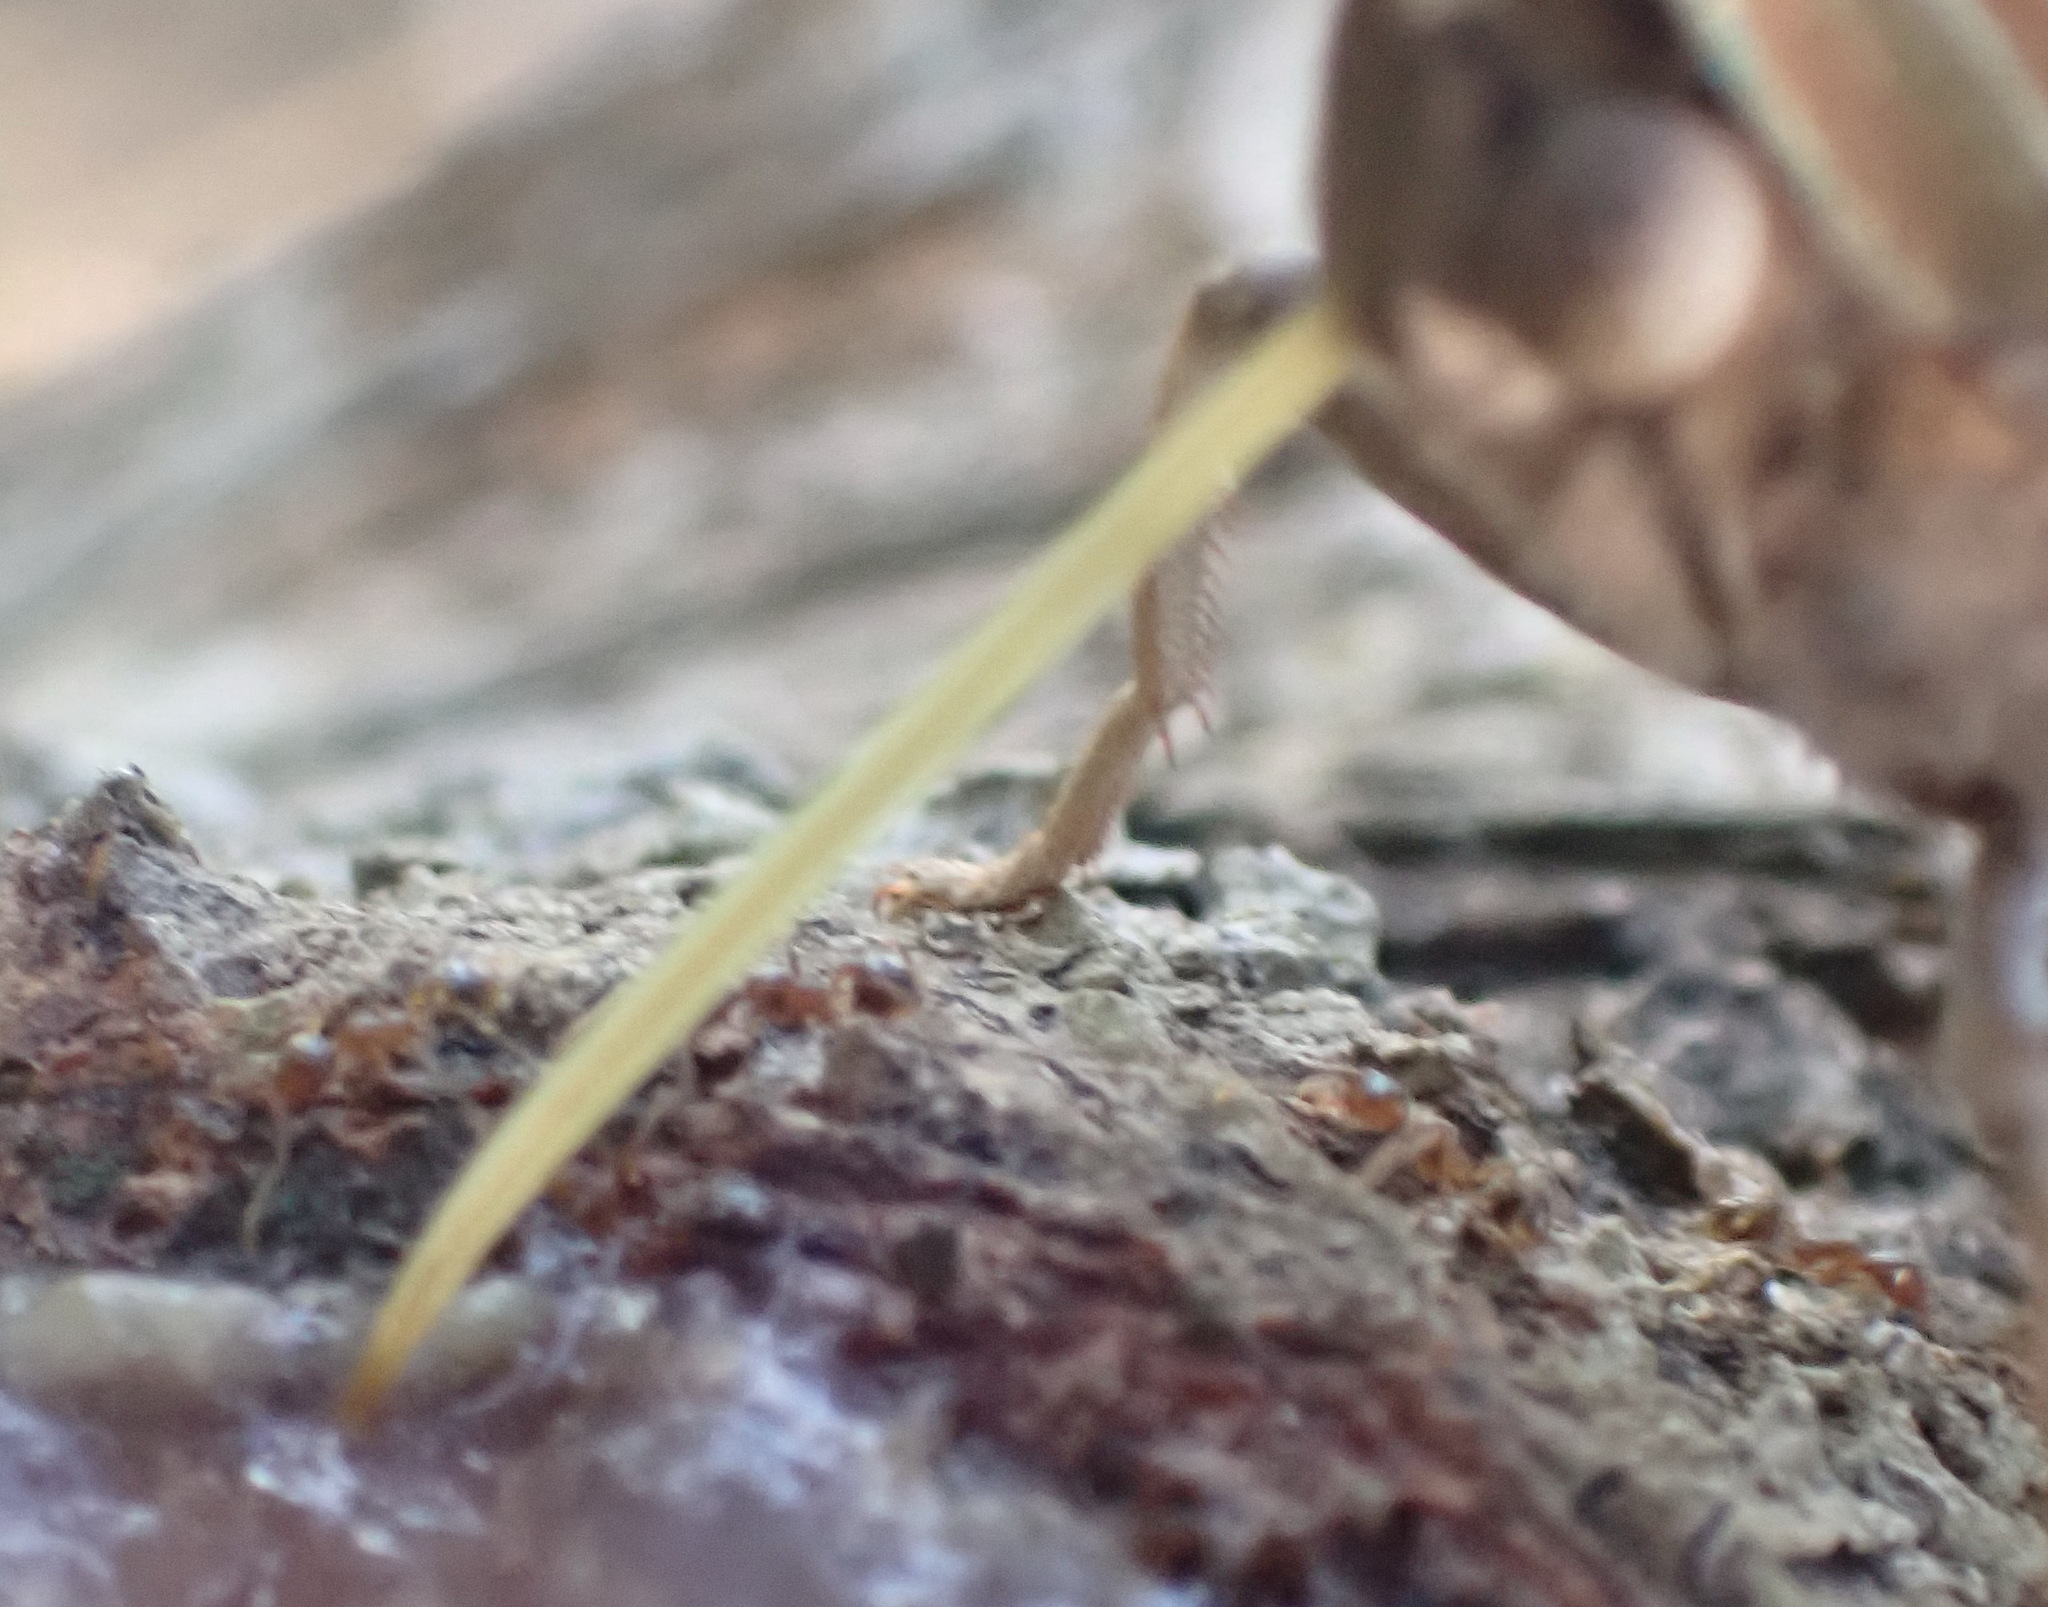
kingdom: Animalia
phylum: Arthropoda
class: Insecta
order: Lepidoptera
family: Nymphalidae
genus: Charaxes
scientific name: Charaxes varanes
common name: Common pearl charaxes
